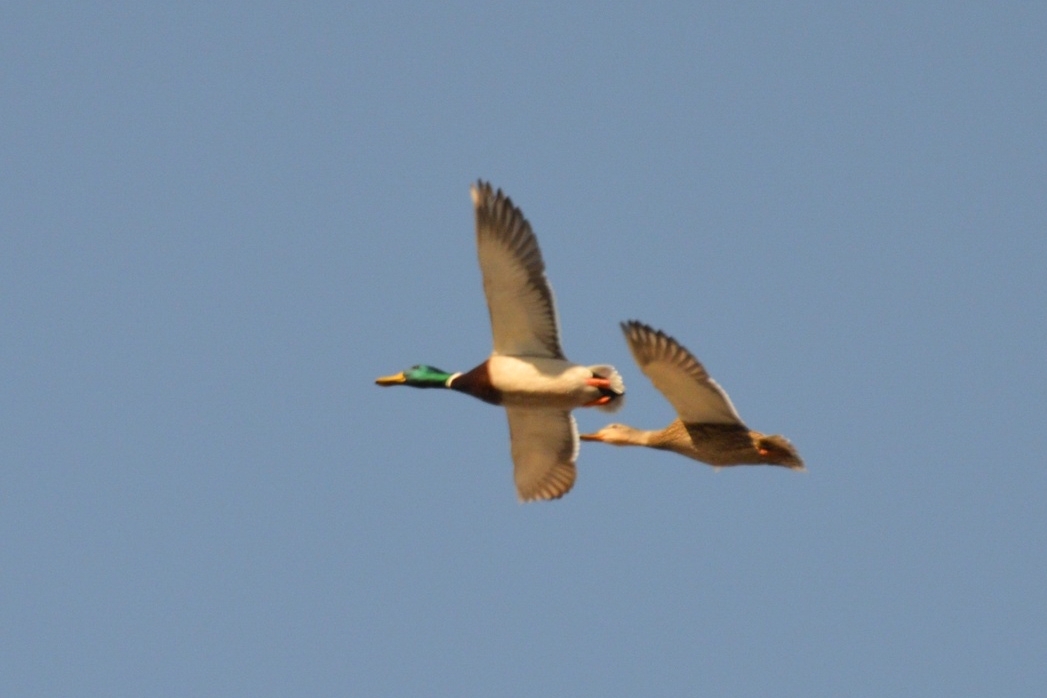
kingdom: Animalia
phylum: Chordata
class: Aves
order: Anseriformes
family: Anatidae
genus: Anas
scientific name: Anas platyrhynchos
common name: Mallard
